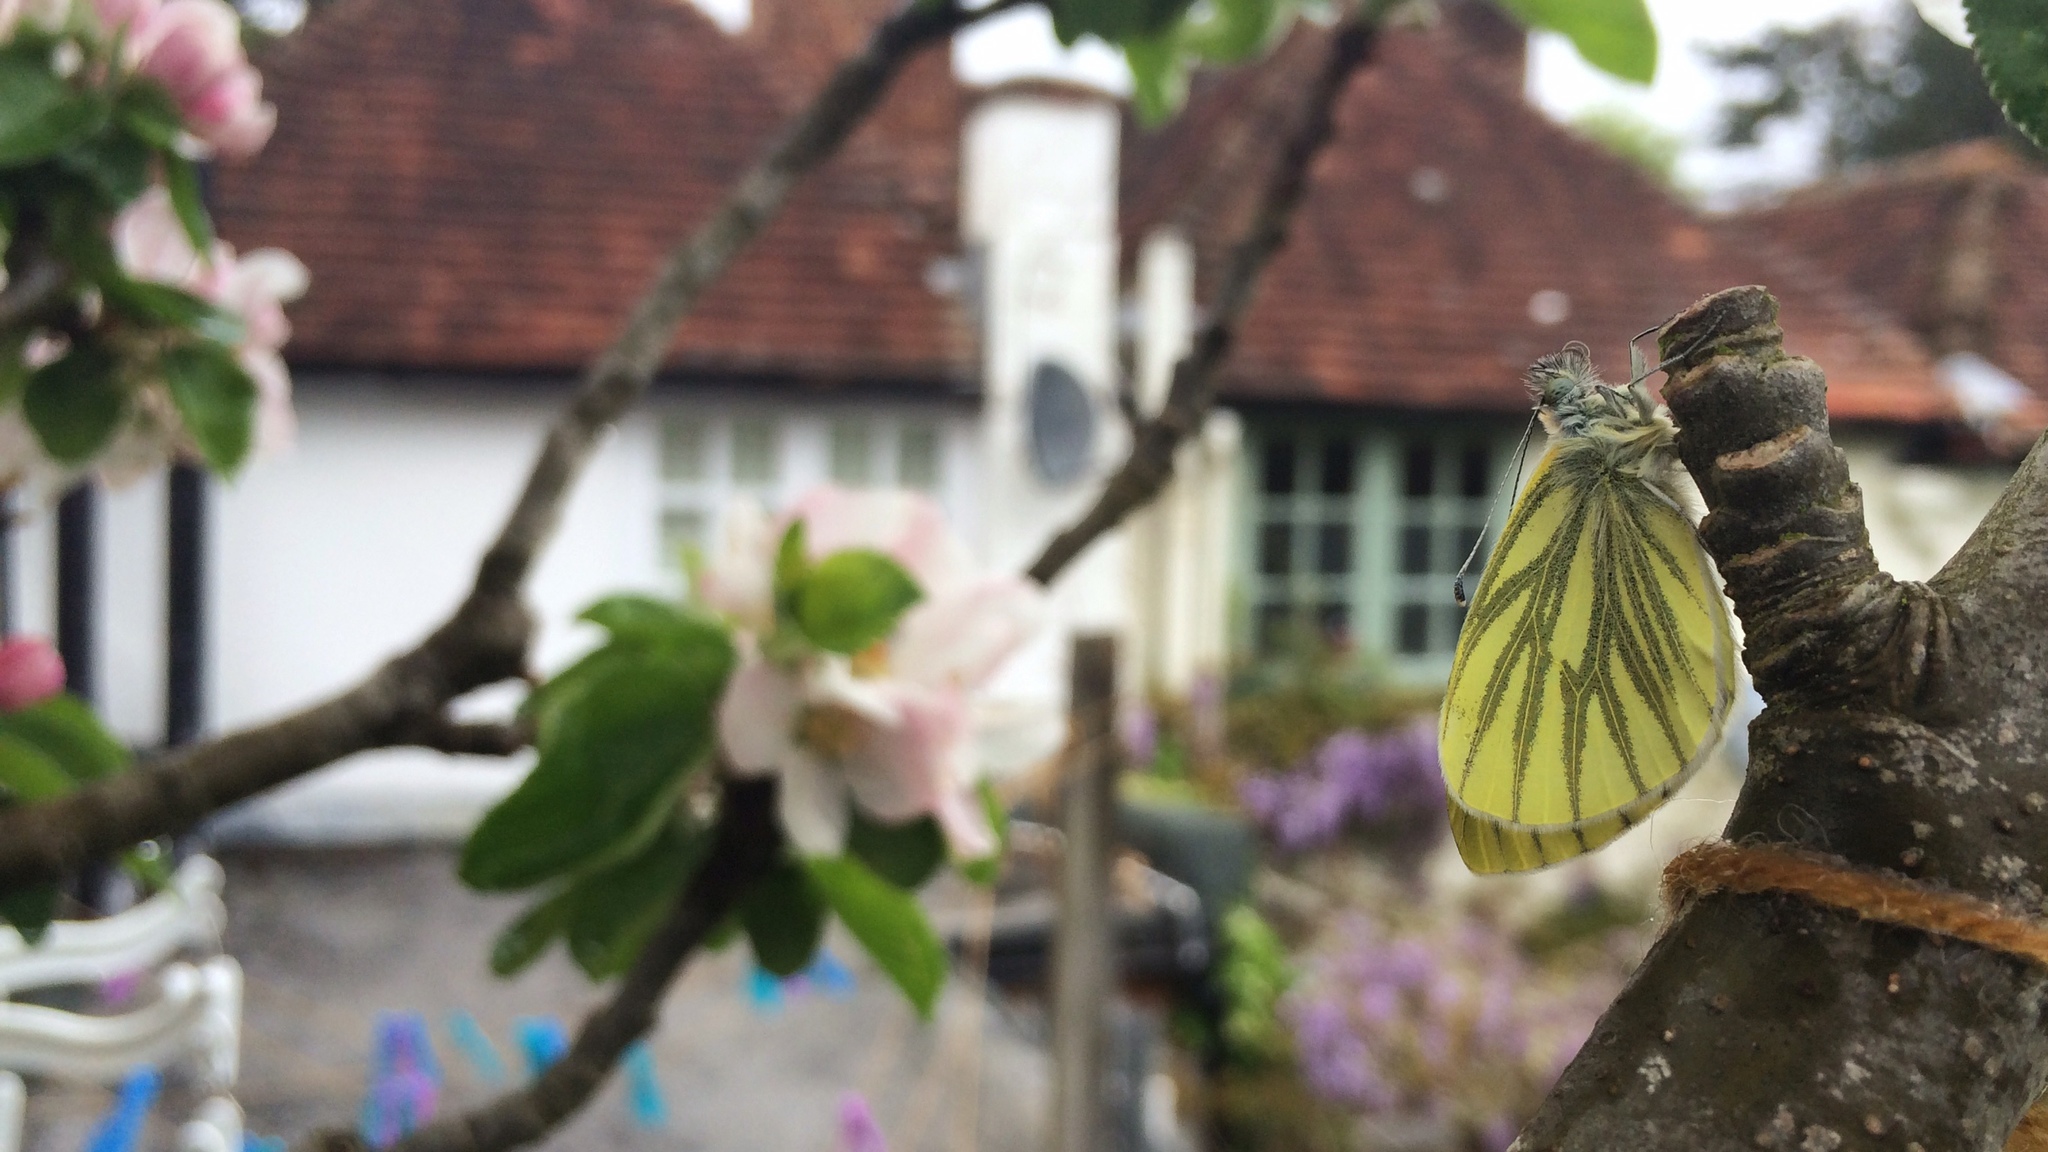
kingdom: Animalia
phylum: Arthropoda
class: Insecta
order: Lepidoptera
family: Pieridae
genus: Pieris
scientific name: Pieris napi
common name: Green-veined white
